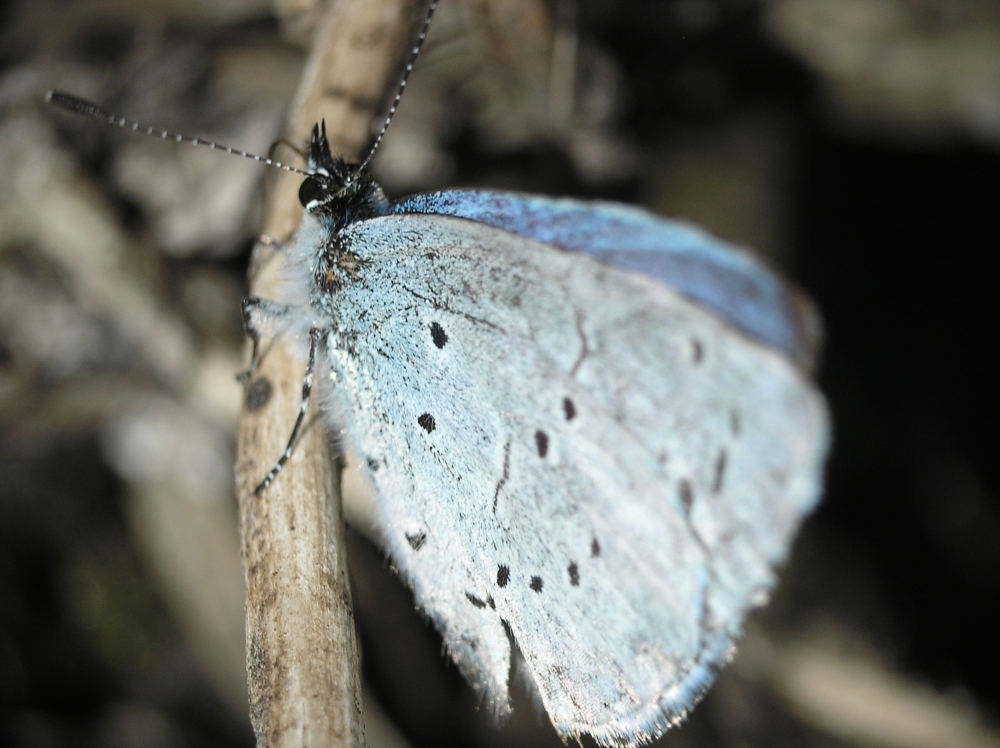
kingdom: Animalia
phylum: Arthropoda
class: Insecta
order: Lepidoptera
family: Lycaenidae
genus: Celastrina
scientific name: Celastrina argiolus
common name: Holly blue
